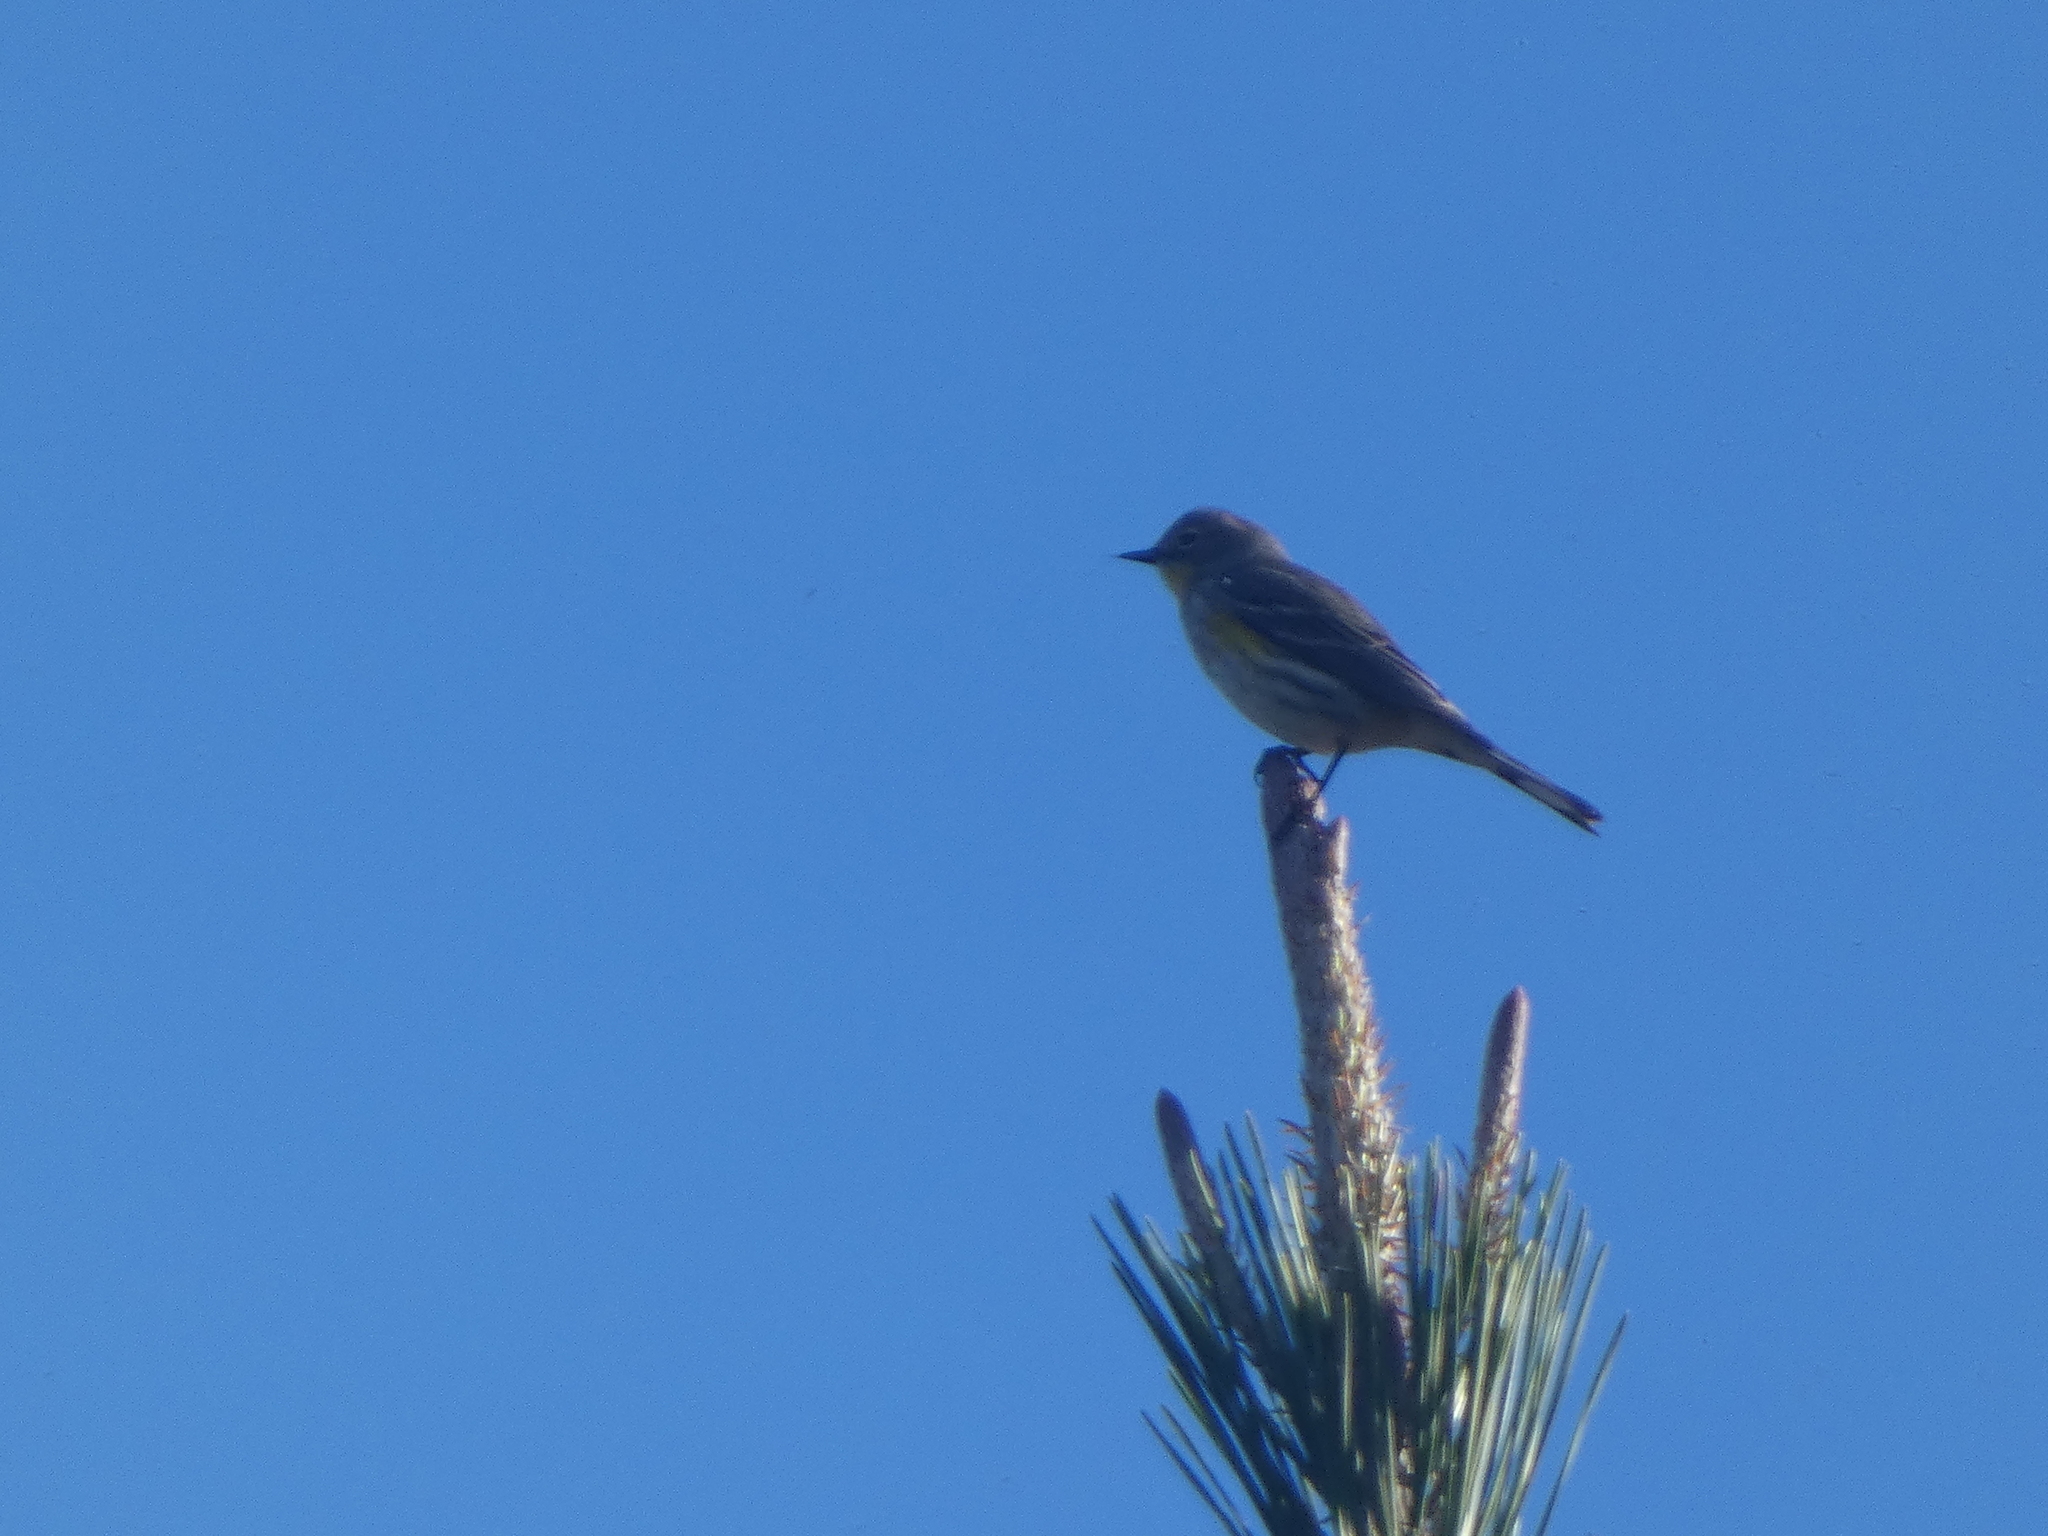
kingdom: Animalia
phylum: Chordata
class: Aves
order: Passeriformes
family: Parulidae
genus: Setophaga
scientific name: Setophaga coronata
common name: Myrtle warbler
